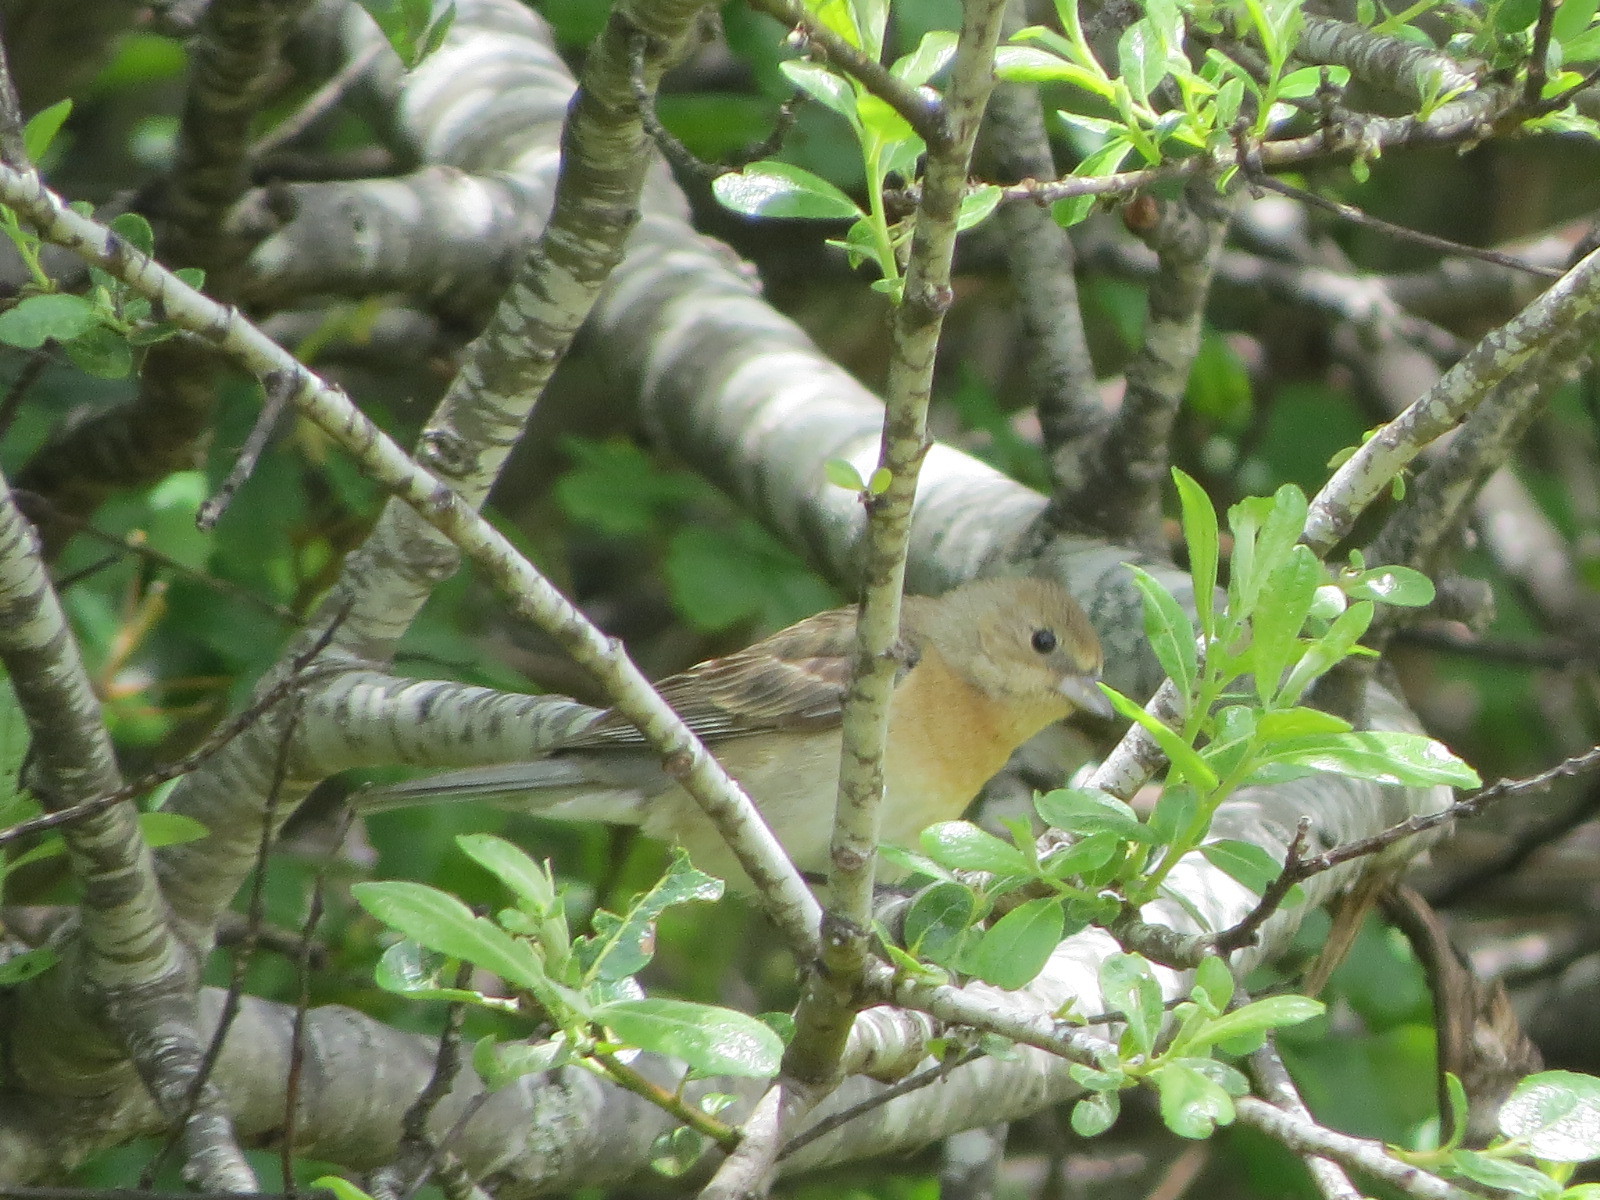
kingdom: Animalia
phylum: Chordata
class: Aves
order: Passeriformes
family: Cardinalidae
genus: Passerina
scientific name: Passerina amoena
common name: Lazuli bunting
